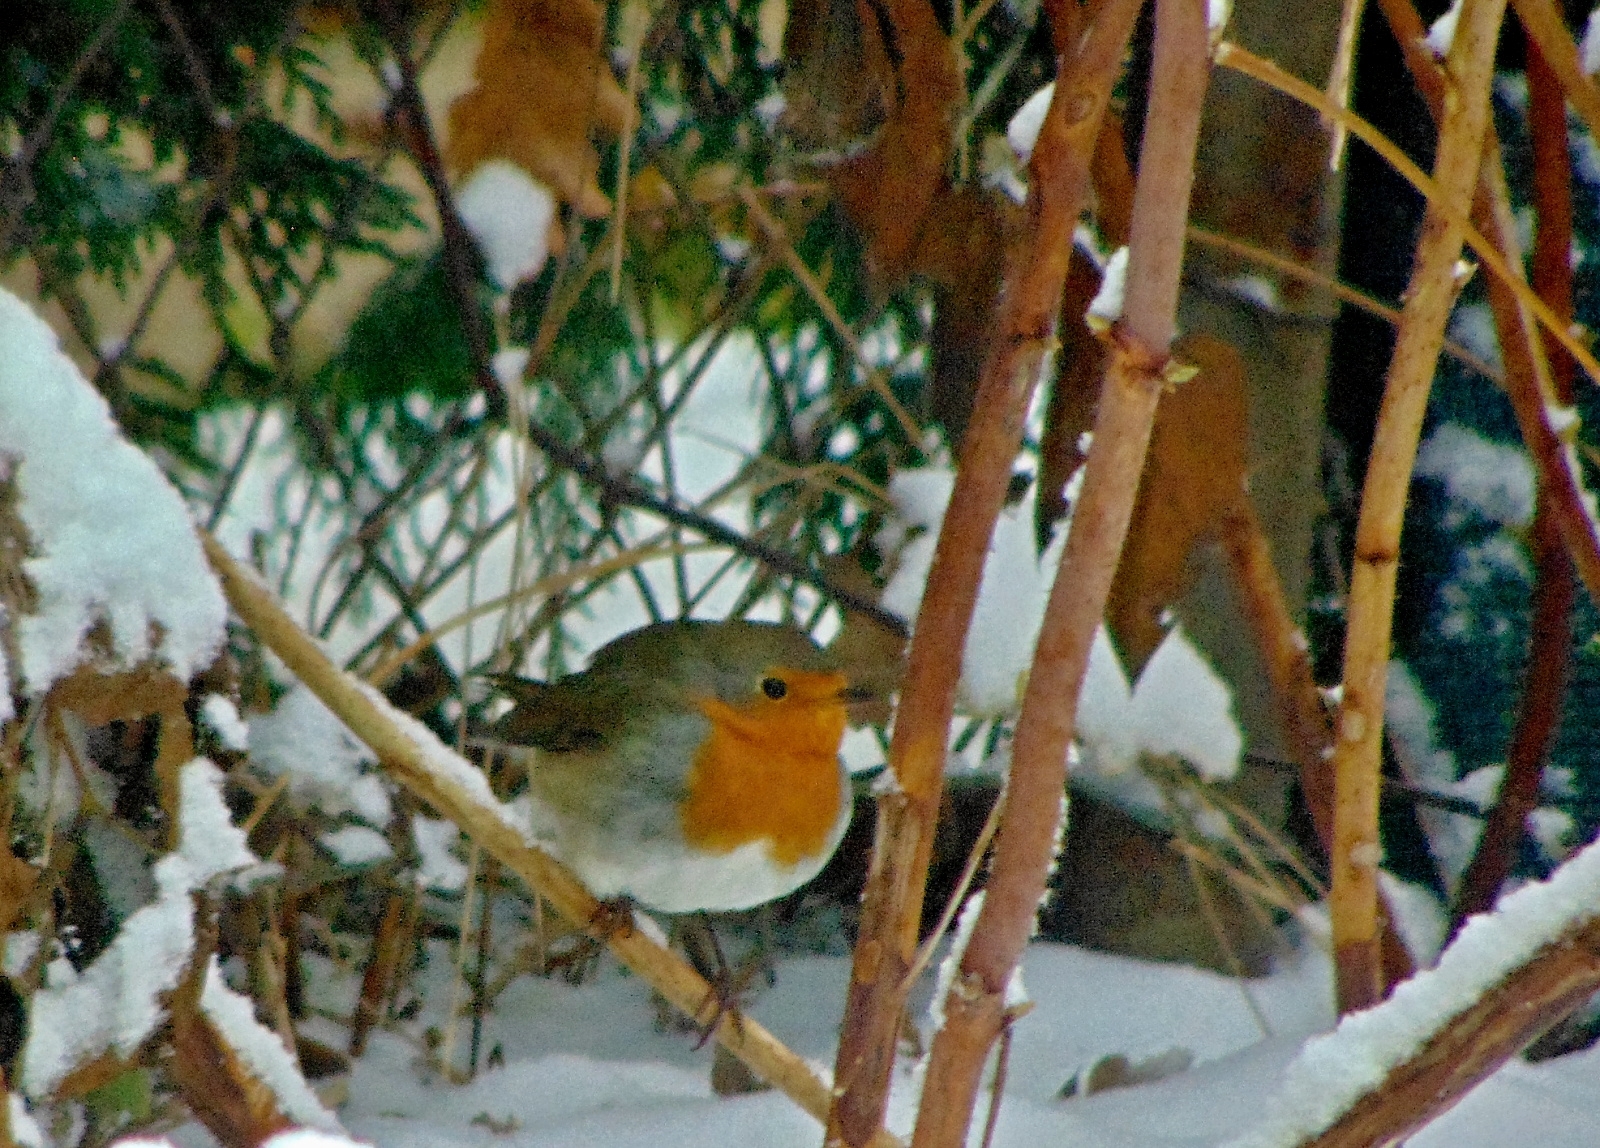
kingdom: Animalia
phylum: Chordata
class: Aves
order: Passeriformes
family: Muscicapidae
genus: Erithacus
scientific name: Erithacus rubecula
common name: European robin
